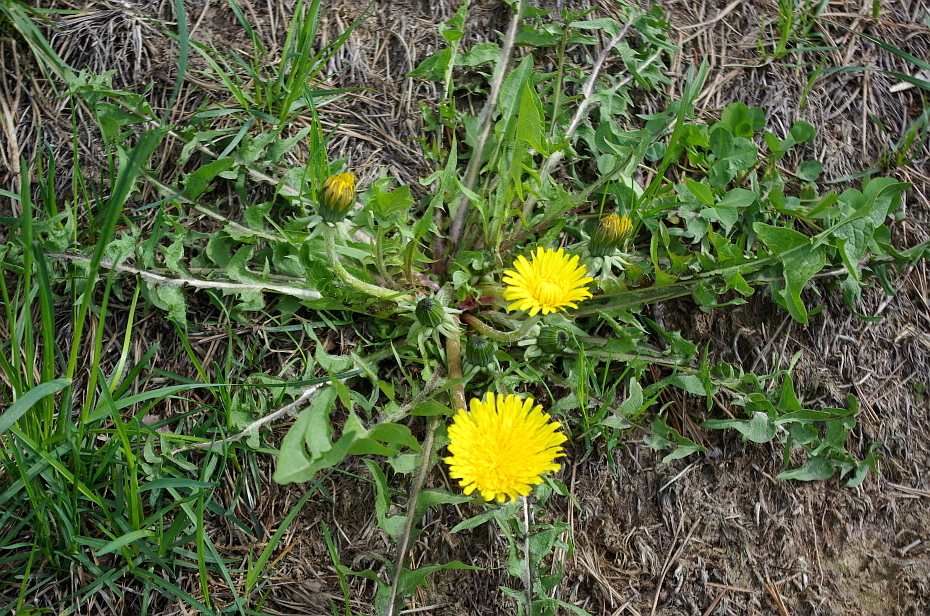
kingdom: Plantae
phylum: Tracheophyta
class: Magnoliopsida
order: Asterales
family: Asteraceae
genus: Taraxacum
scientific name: Taraxacum officinale
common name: Common dandelion
